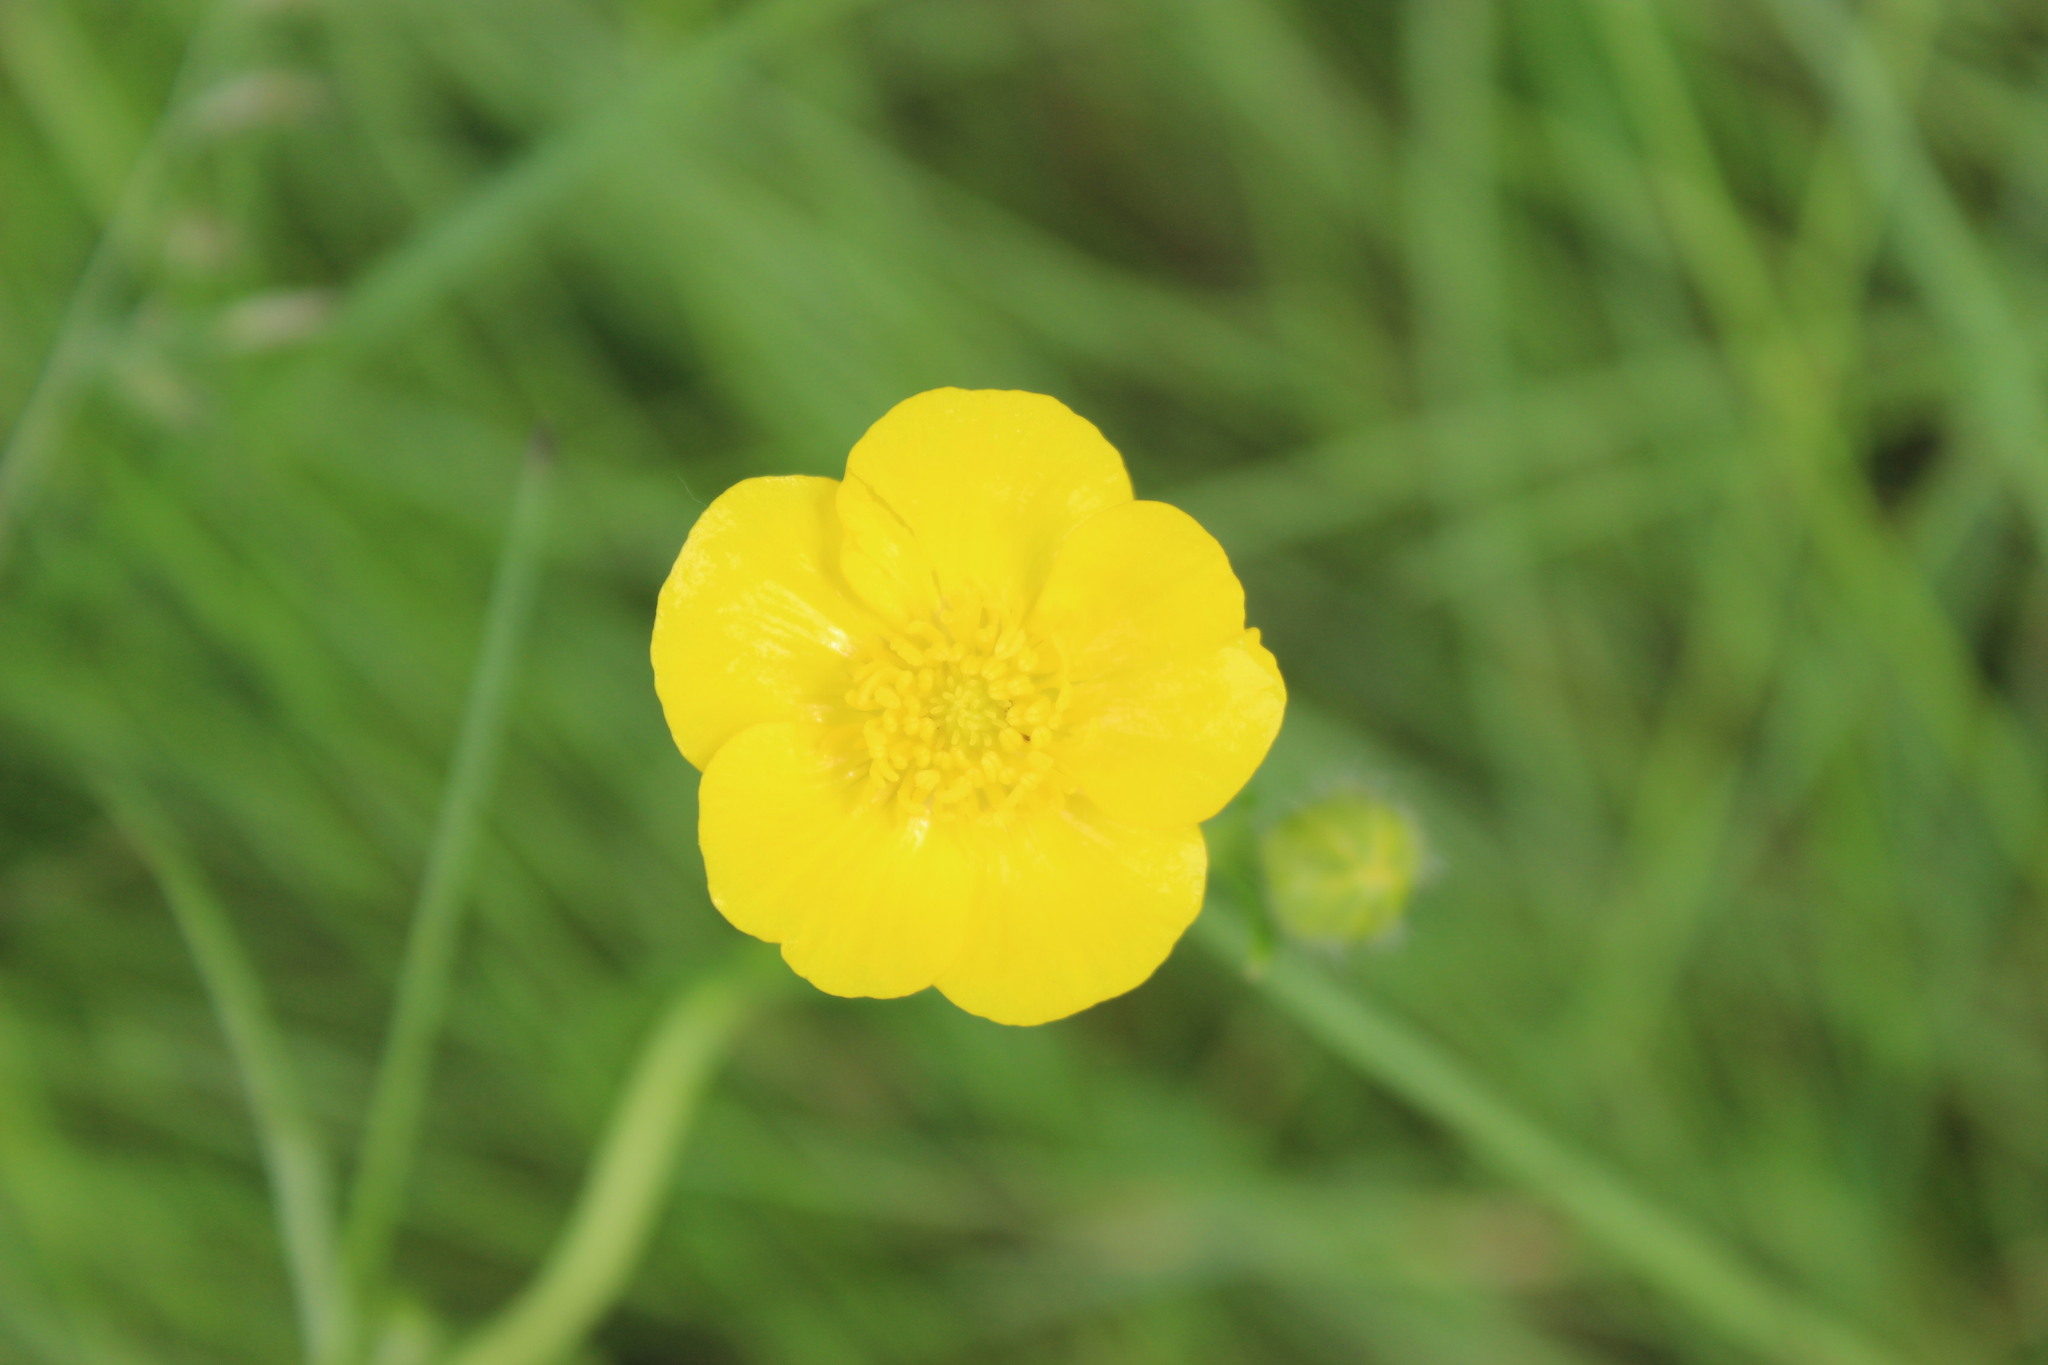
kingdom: Plantae
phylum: Tracheophyta
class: Magnoliopsida
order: Ranunculales
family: Ranunculaceae
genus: Ranunculus
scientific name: Ranunculus polyanthemos
